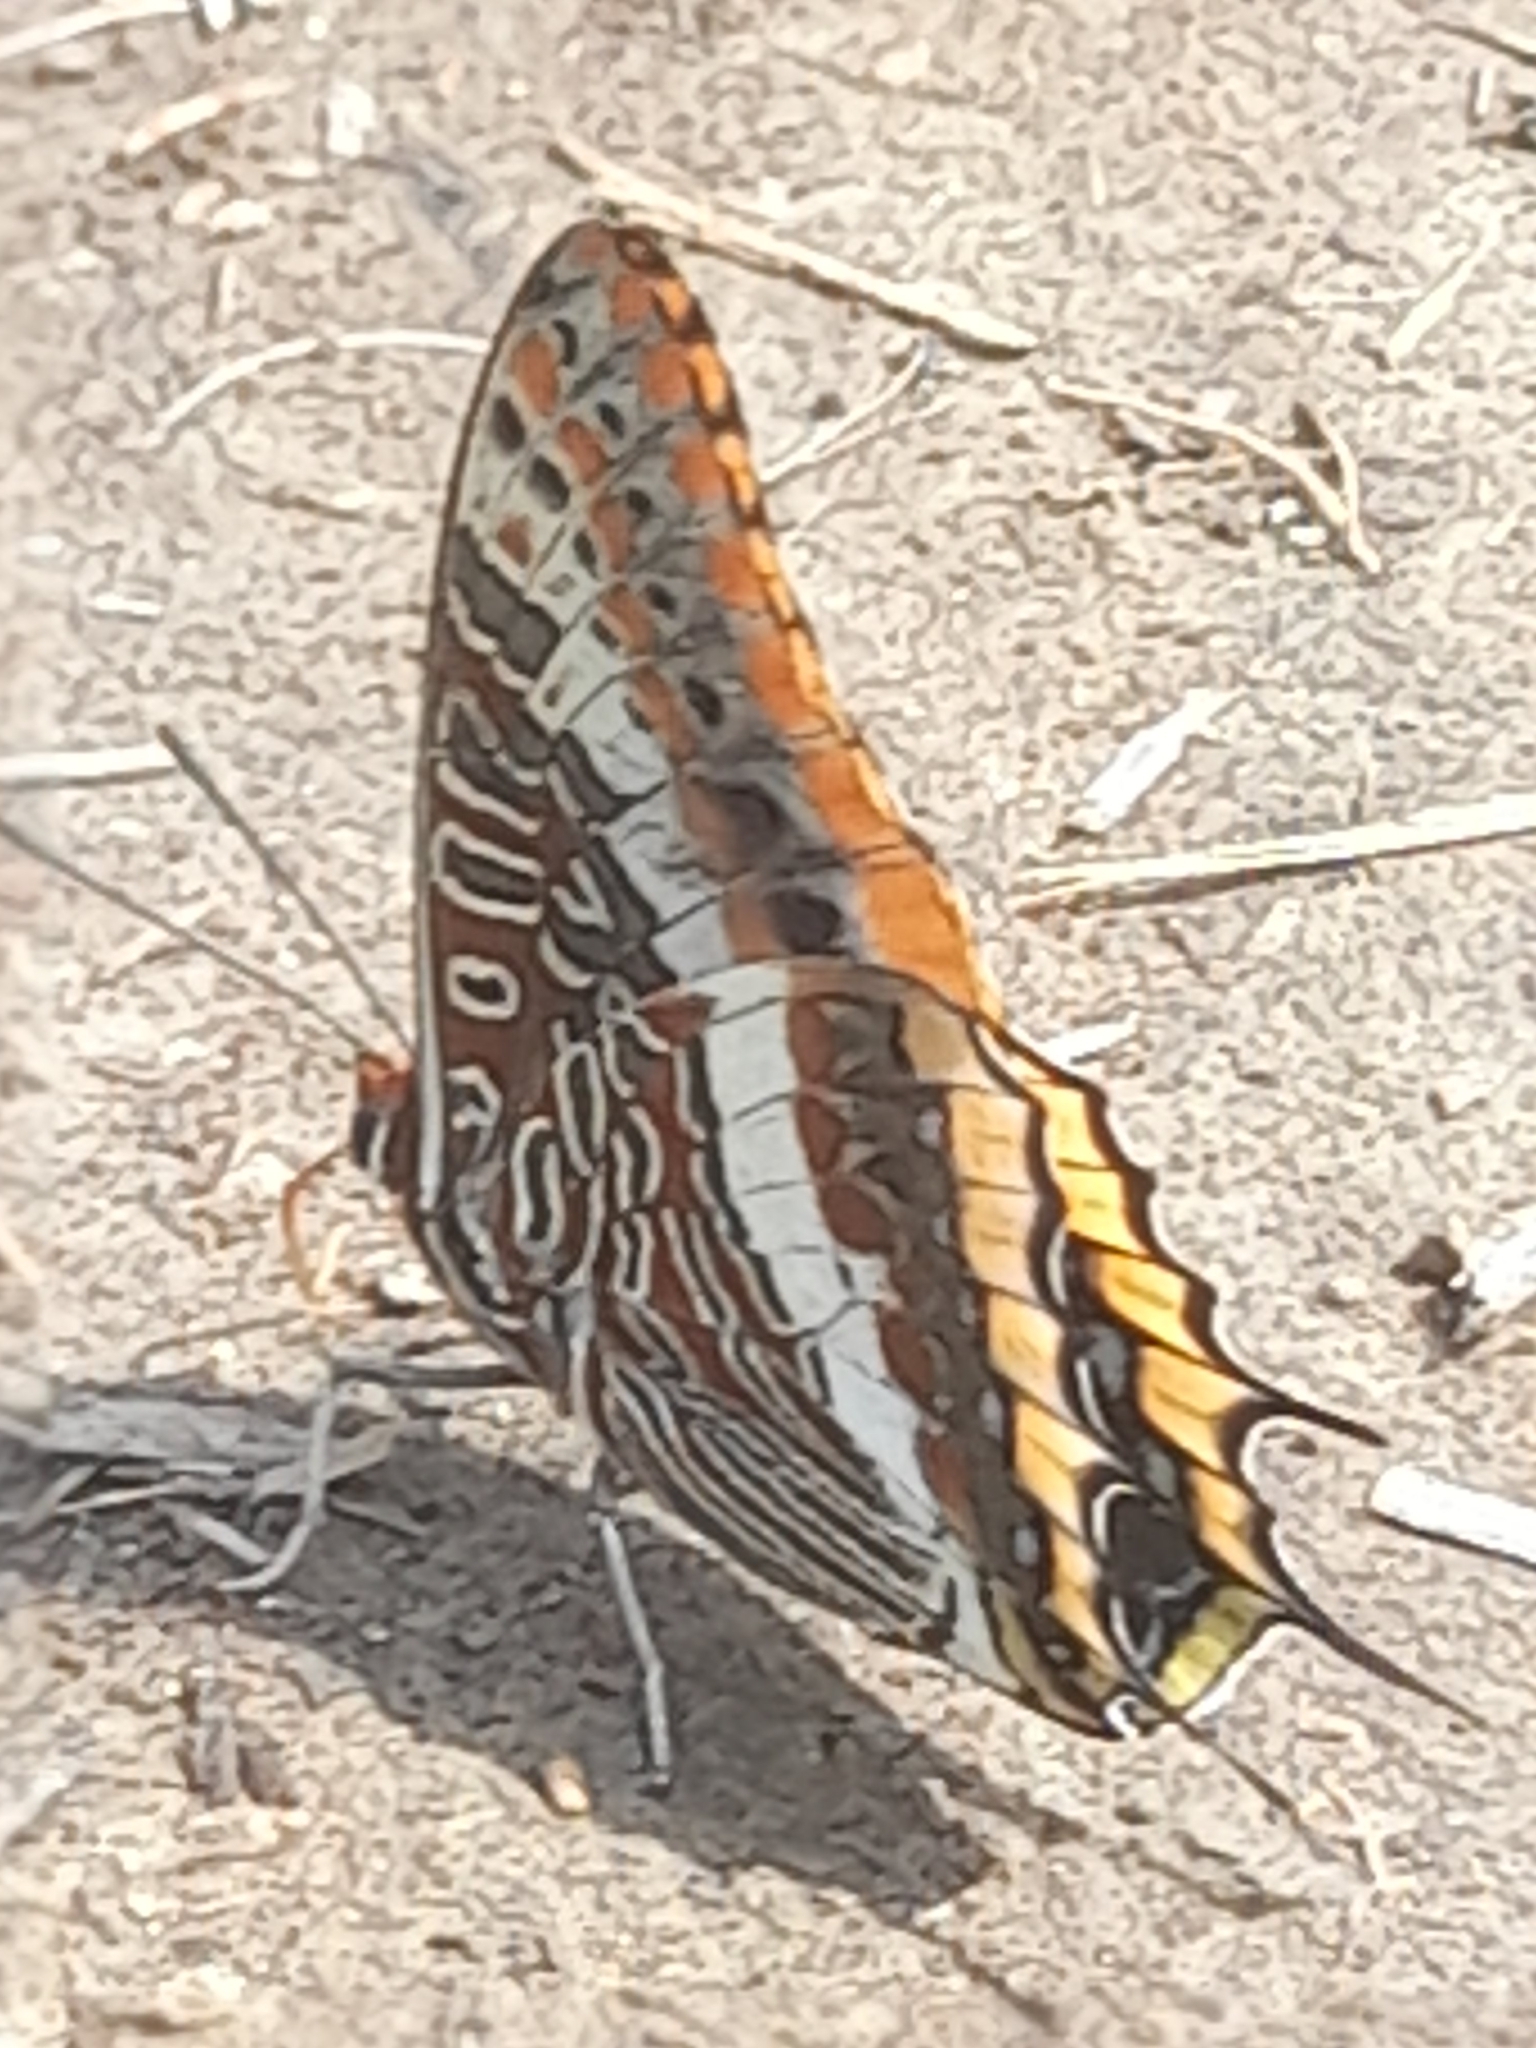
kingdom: Animalia
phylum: Arthropoda
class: Insecta
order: Lepidoptera
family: Nymphalidae
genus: Charaxes
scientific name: Charaxes jasius
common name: Two tailed pasha
